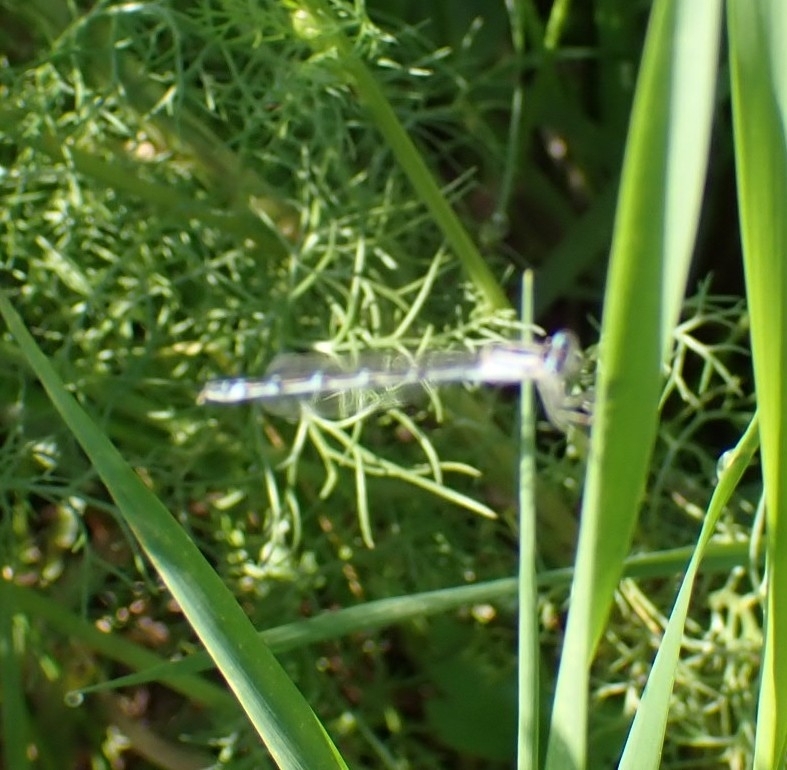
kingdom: Animalia
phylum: Arthropoda
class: Insecta
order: Odonata
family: Coenagrionidae
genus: Enallagma
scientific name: Enallagma cyathigerum
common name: Common blue damselfly
